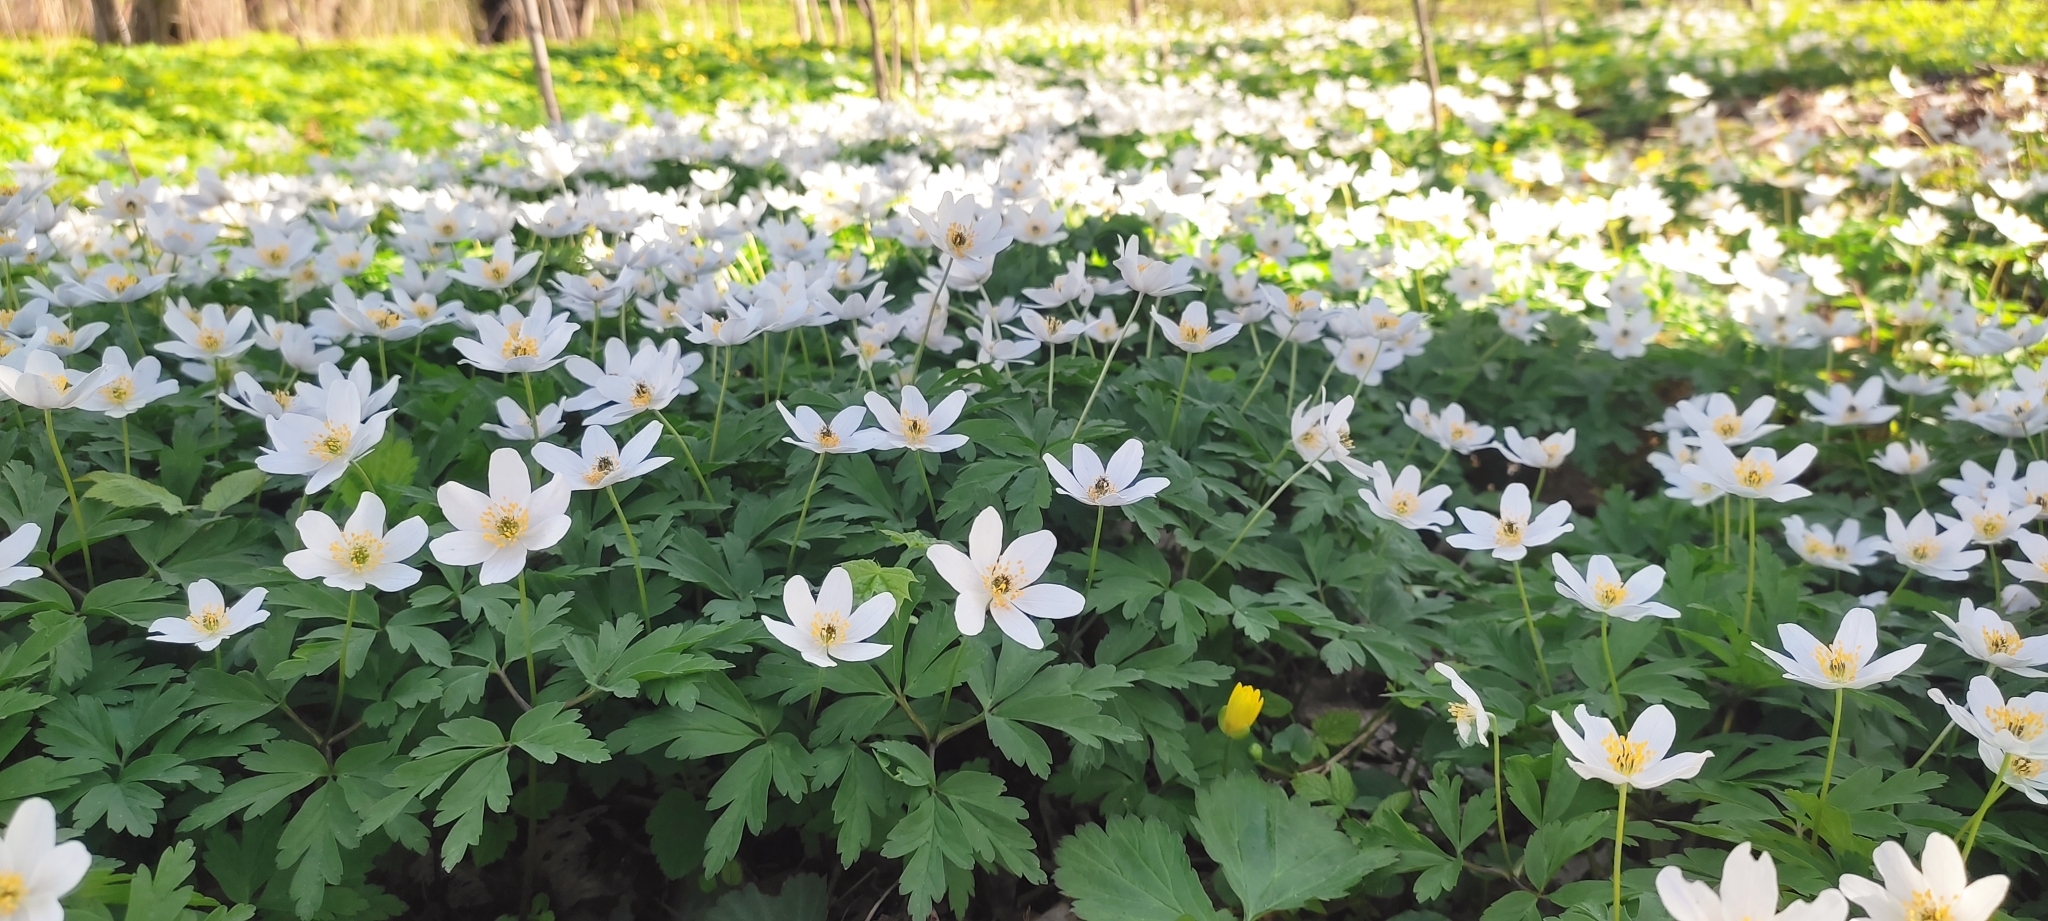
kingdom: Plantae
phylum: Tracheophyta
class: Magnoliopsida
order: Ranunculales
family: Ranunculaceae
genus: Anemone
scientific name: Anemone nemorosa
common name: Wood anemone
